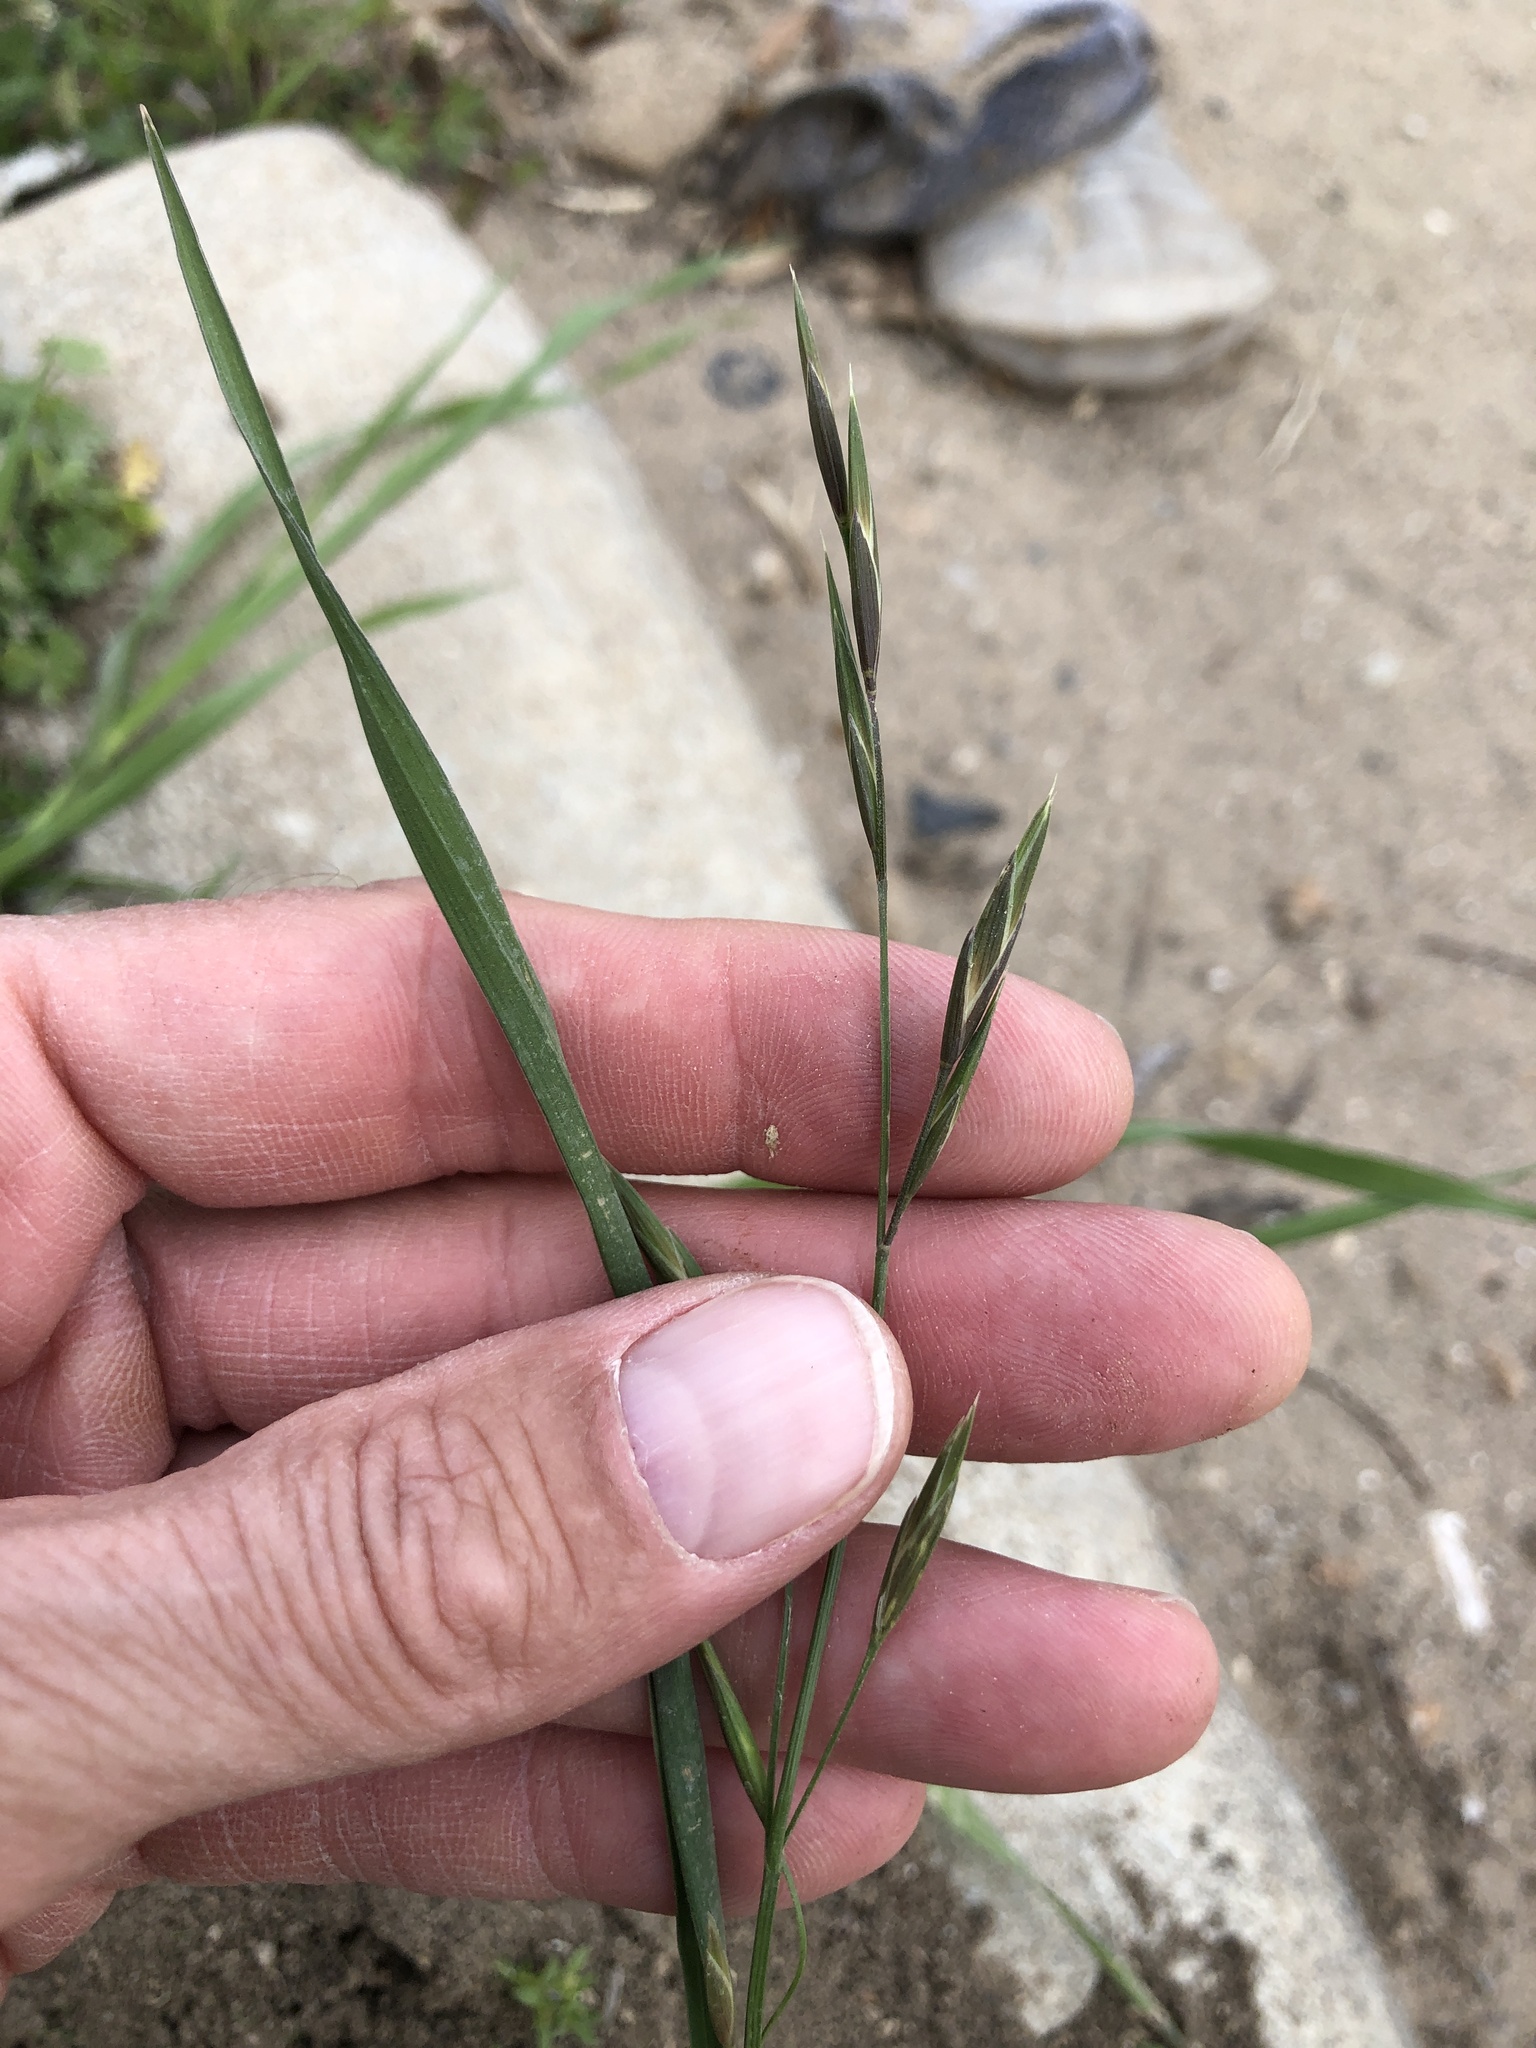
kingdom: Plantae
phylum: Tracheophyta
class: Liliopsida
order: Poales
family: Poaceae
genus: Bromus
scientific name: Bromus catharticus
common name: Rescuegrass
